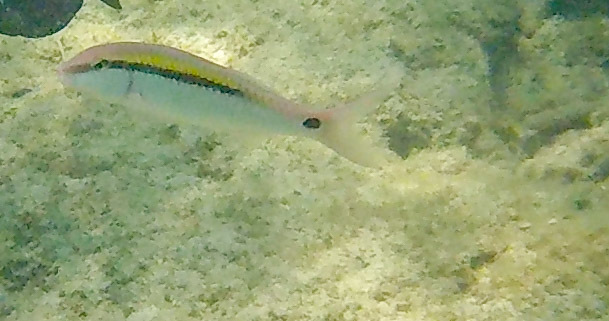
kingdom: Animalia
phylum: Chordata
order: Perciformes
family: Mullidae
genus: Parupeneus
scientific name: Parupeneus barberinus
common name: Dash-and-dot goatfish
